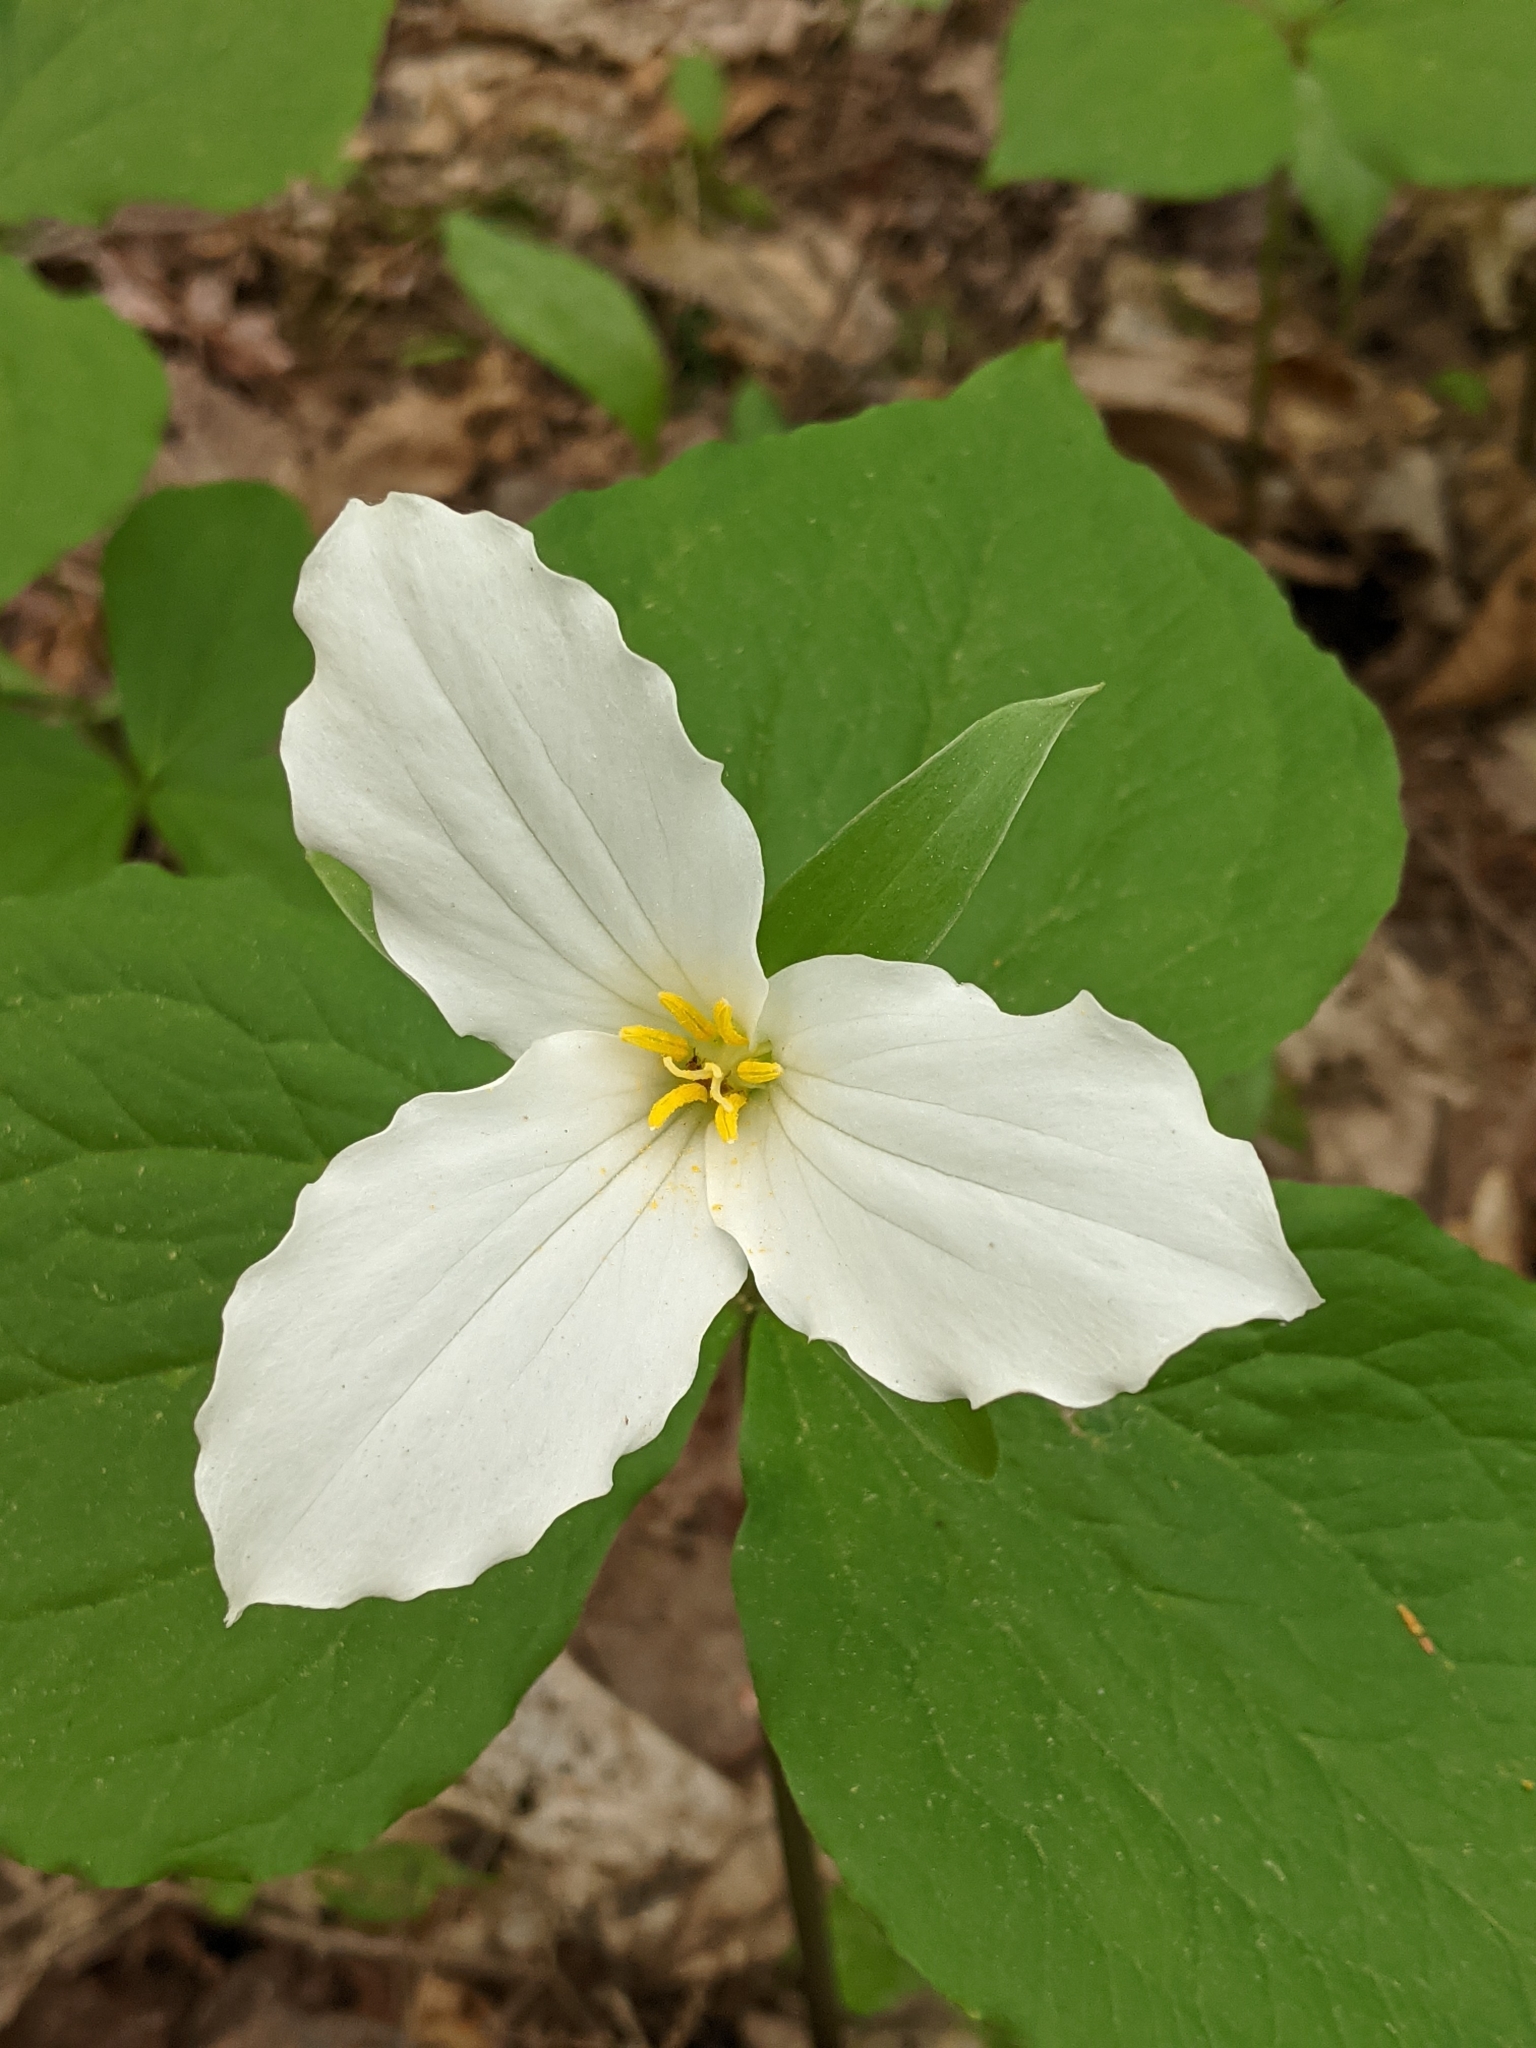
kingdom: Plantae
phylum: Tracheophyta
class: Liliopsida
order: Liliales
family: Melanthiaceae
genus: Trillium
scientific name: Trillium grandiflorum
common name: Great white trillium
